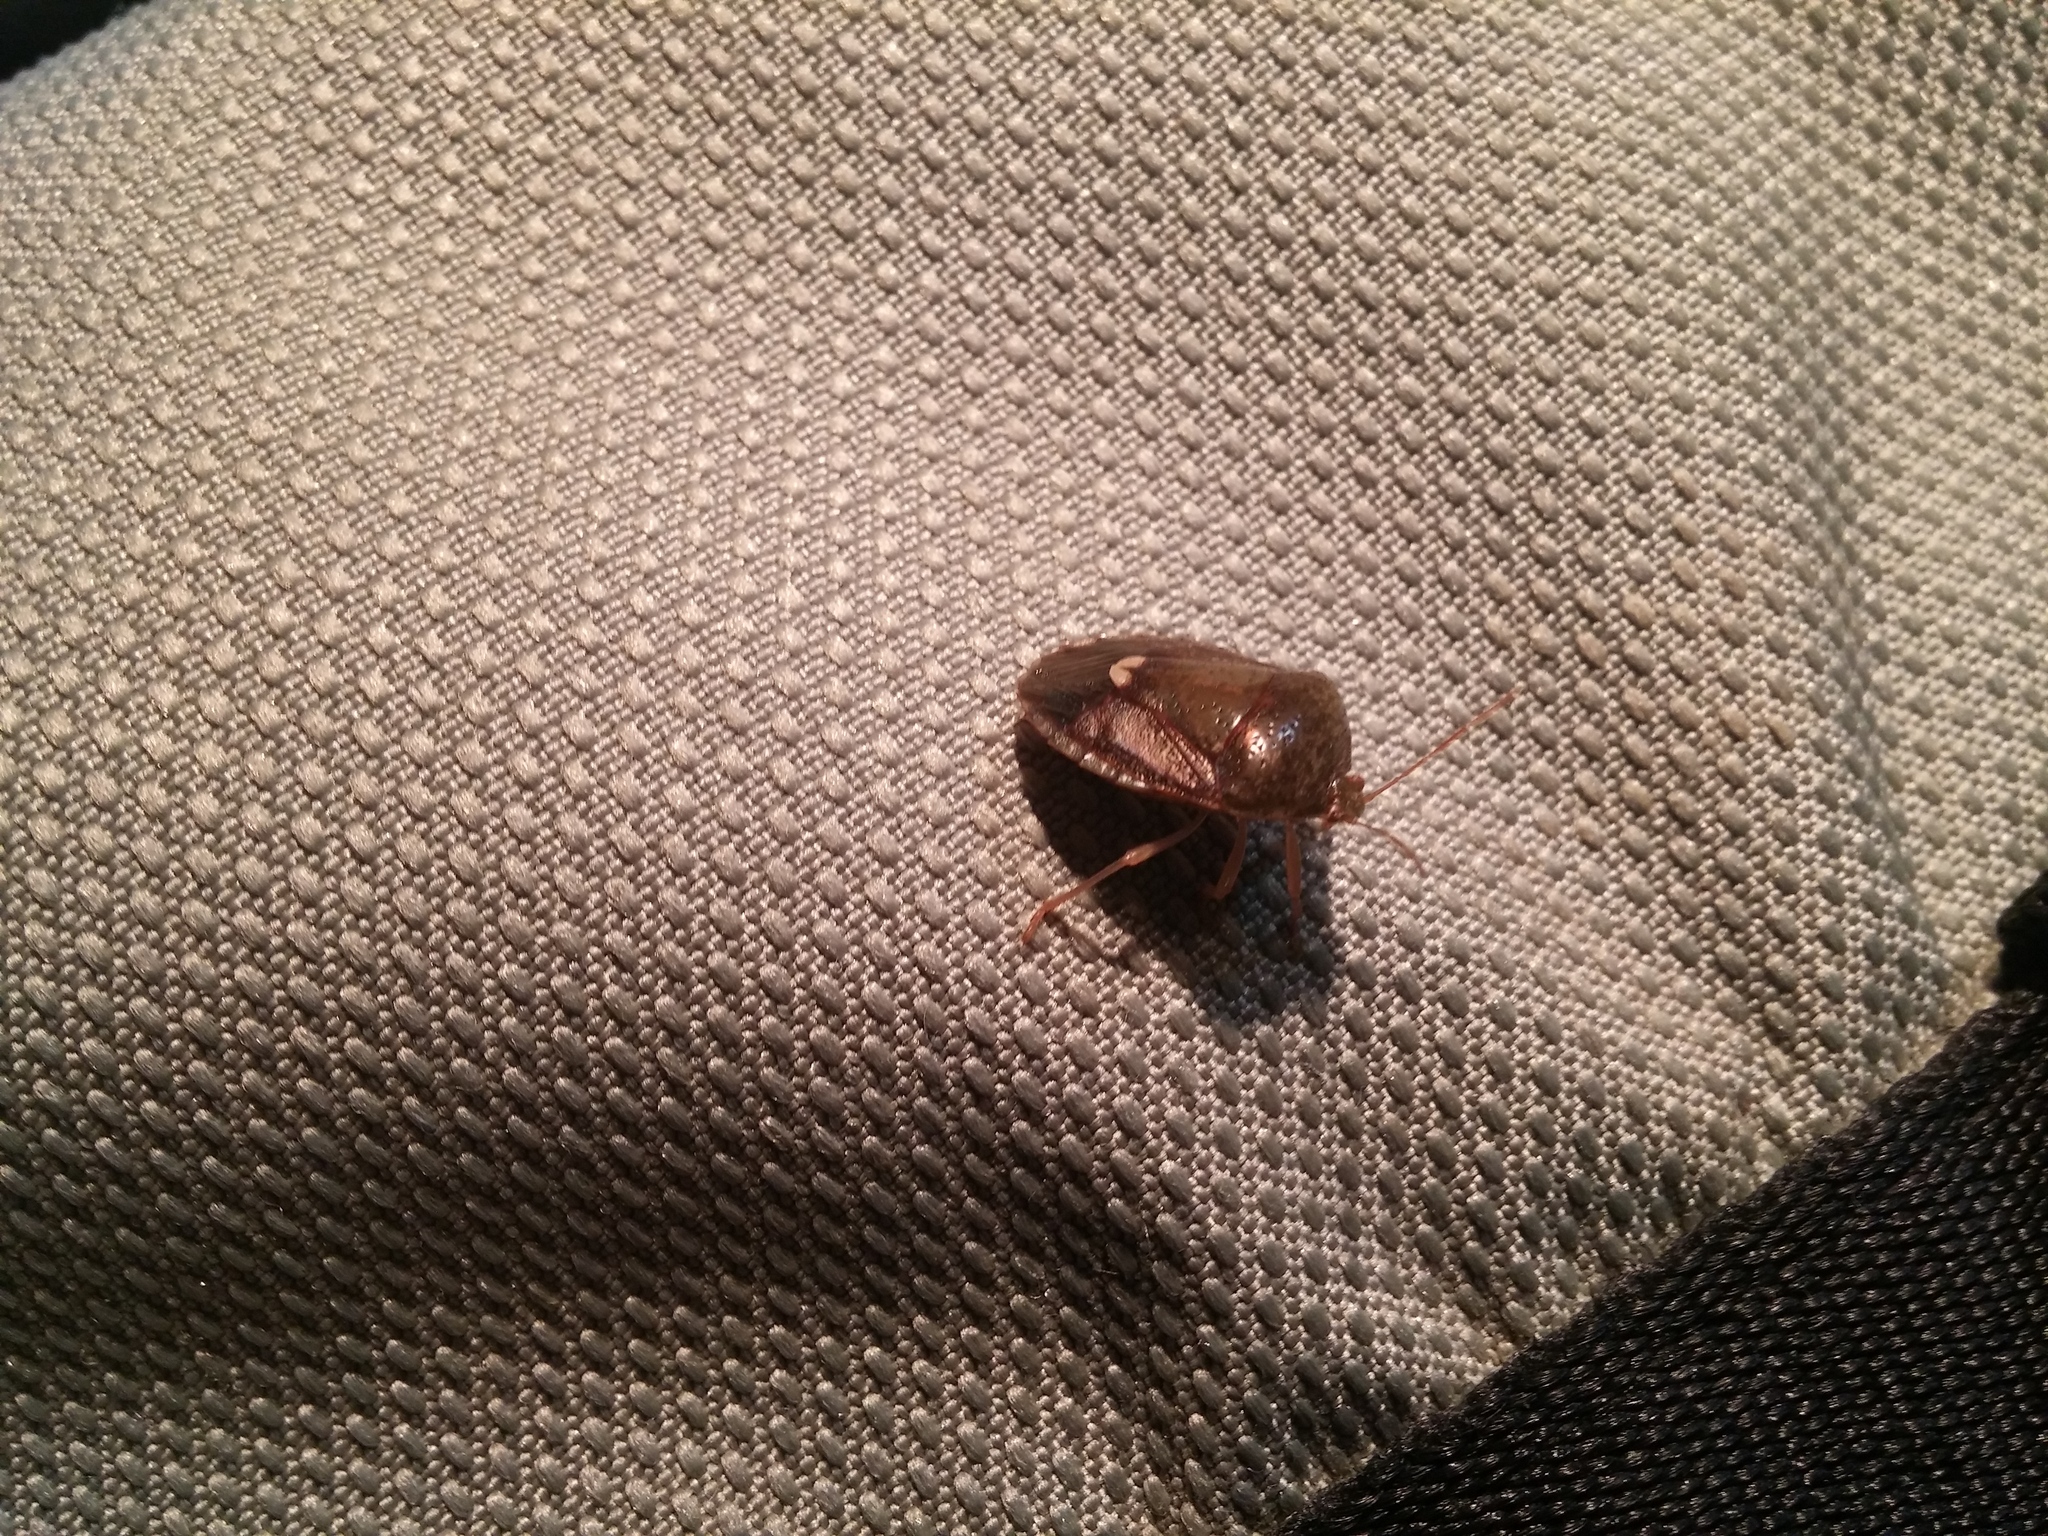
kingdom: Animalia
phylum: Arthropoda
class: Insecta
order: Hemiptera
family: Pentatomidae
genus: Edessa
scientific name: Edessa bifida
